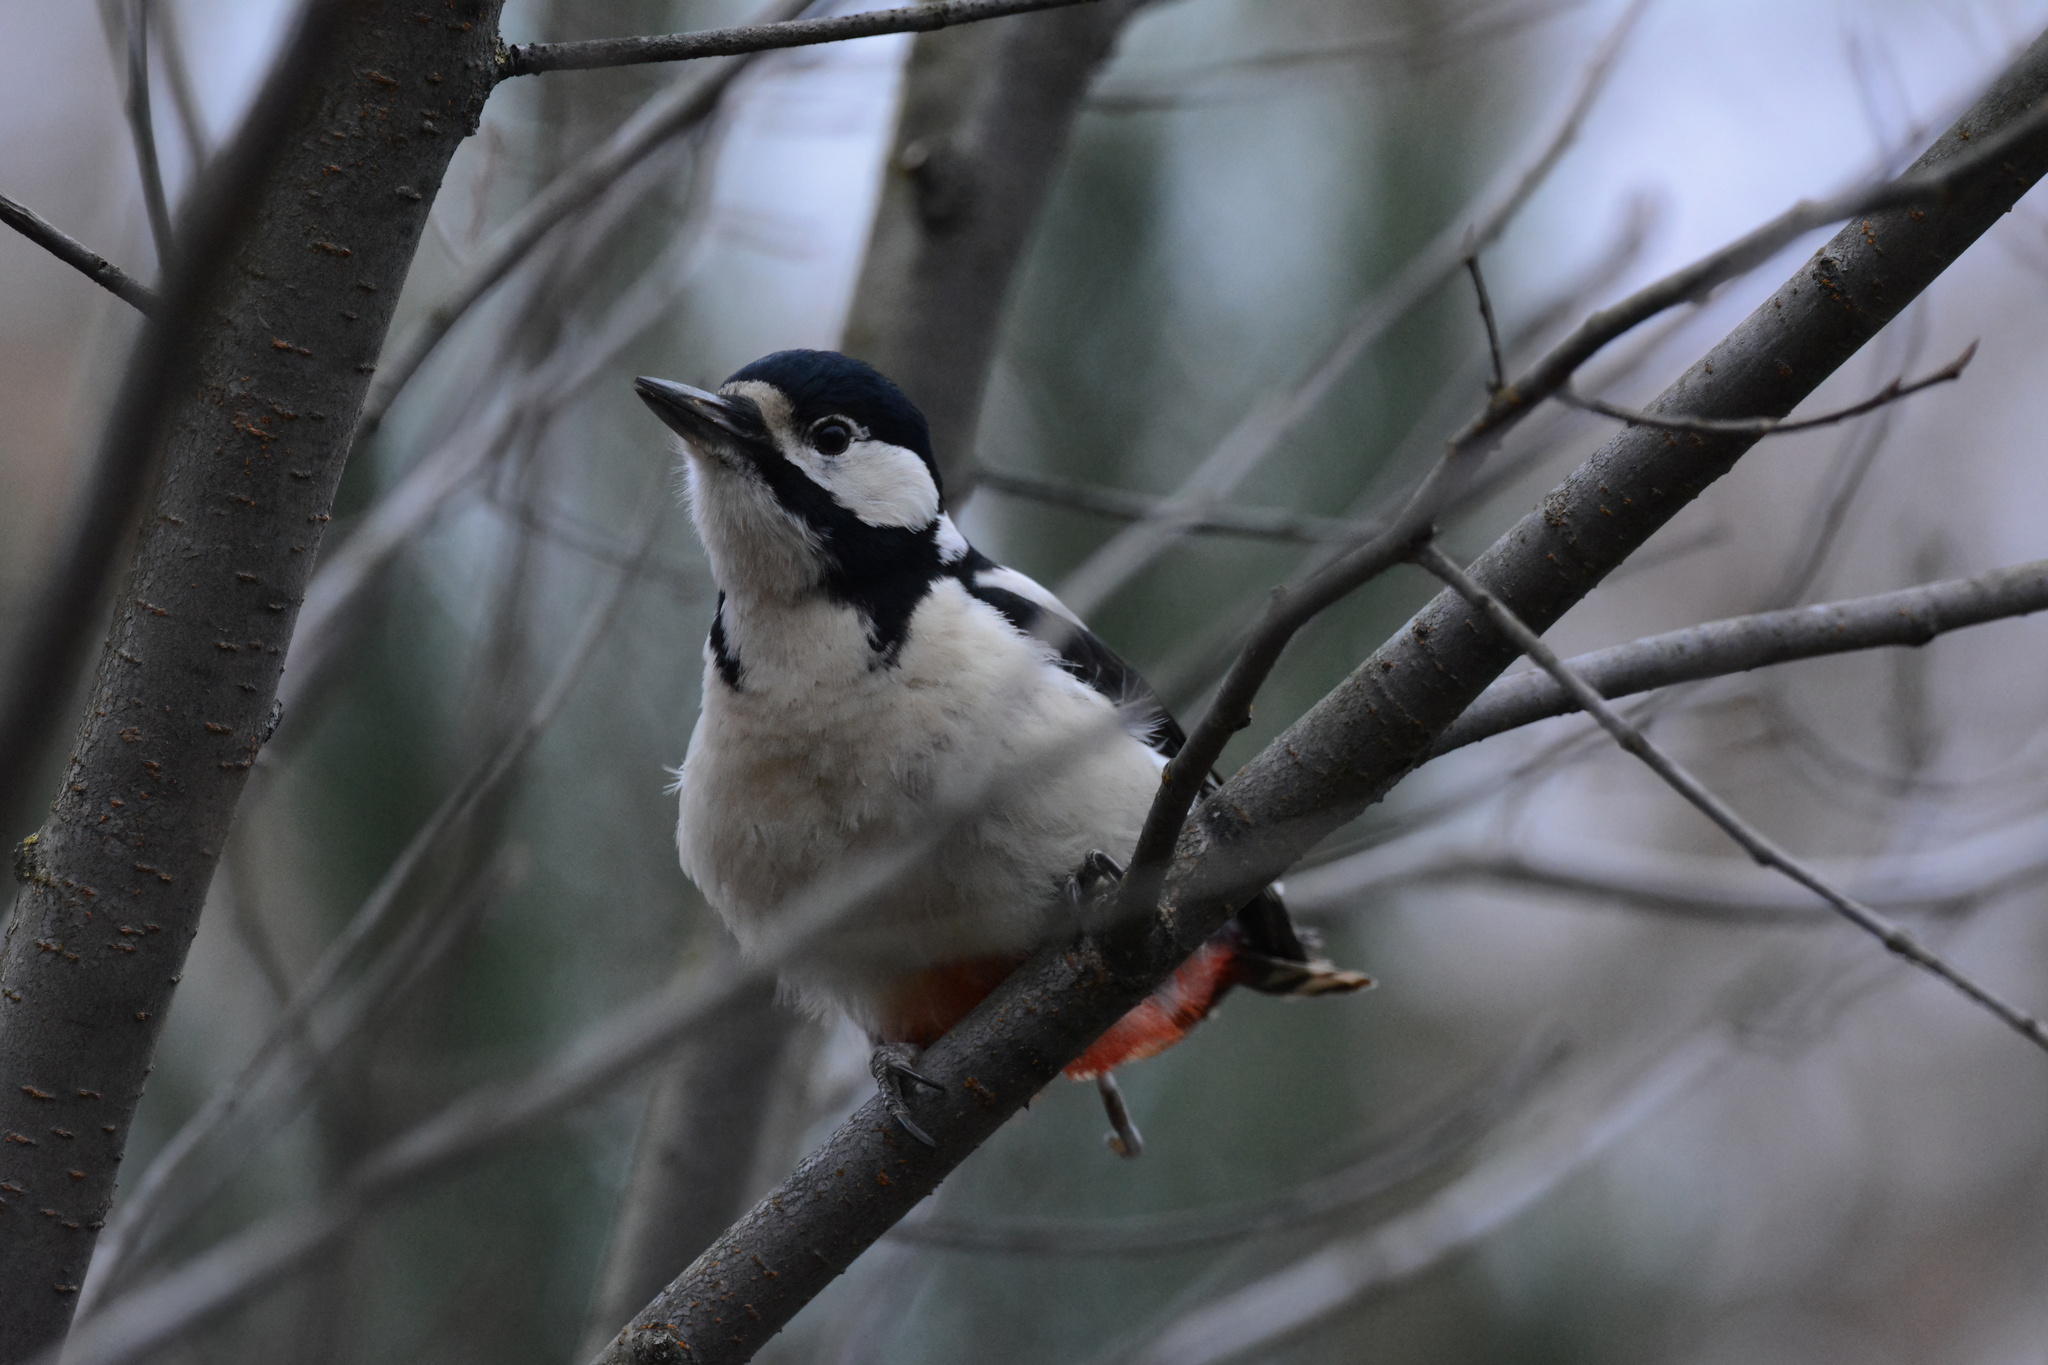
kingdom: Animalia
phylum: Chordata
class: Aves
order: Piciformes
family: Picidae
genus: Dendrocopos
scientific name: Dendrocopos major
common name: Great spotted woodpecker
